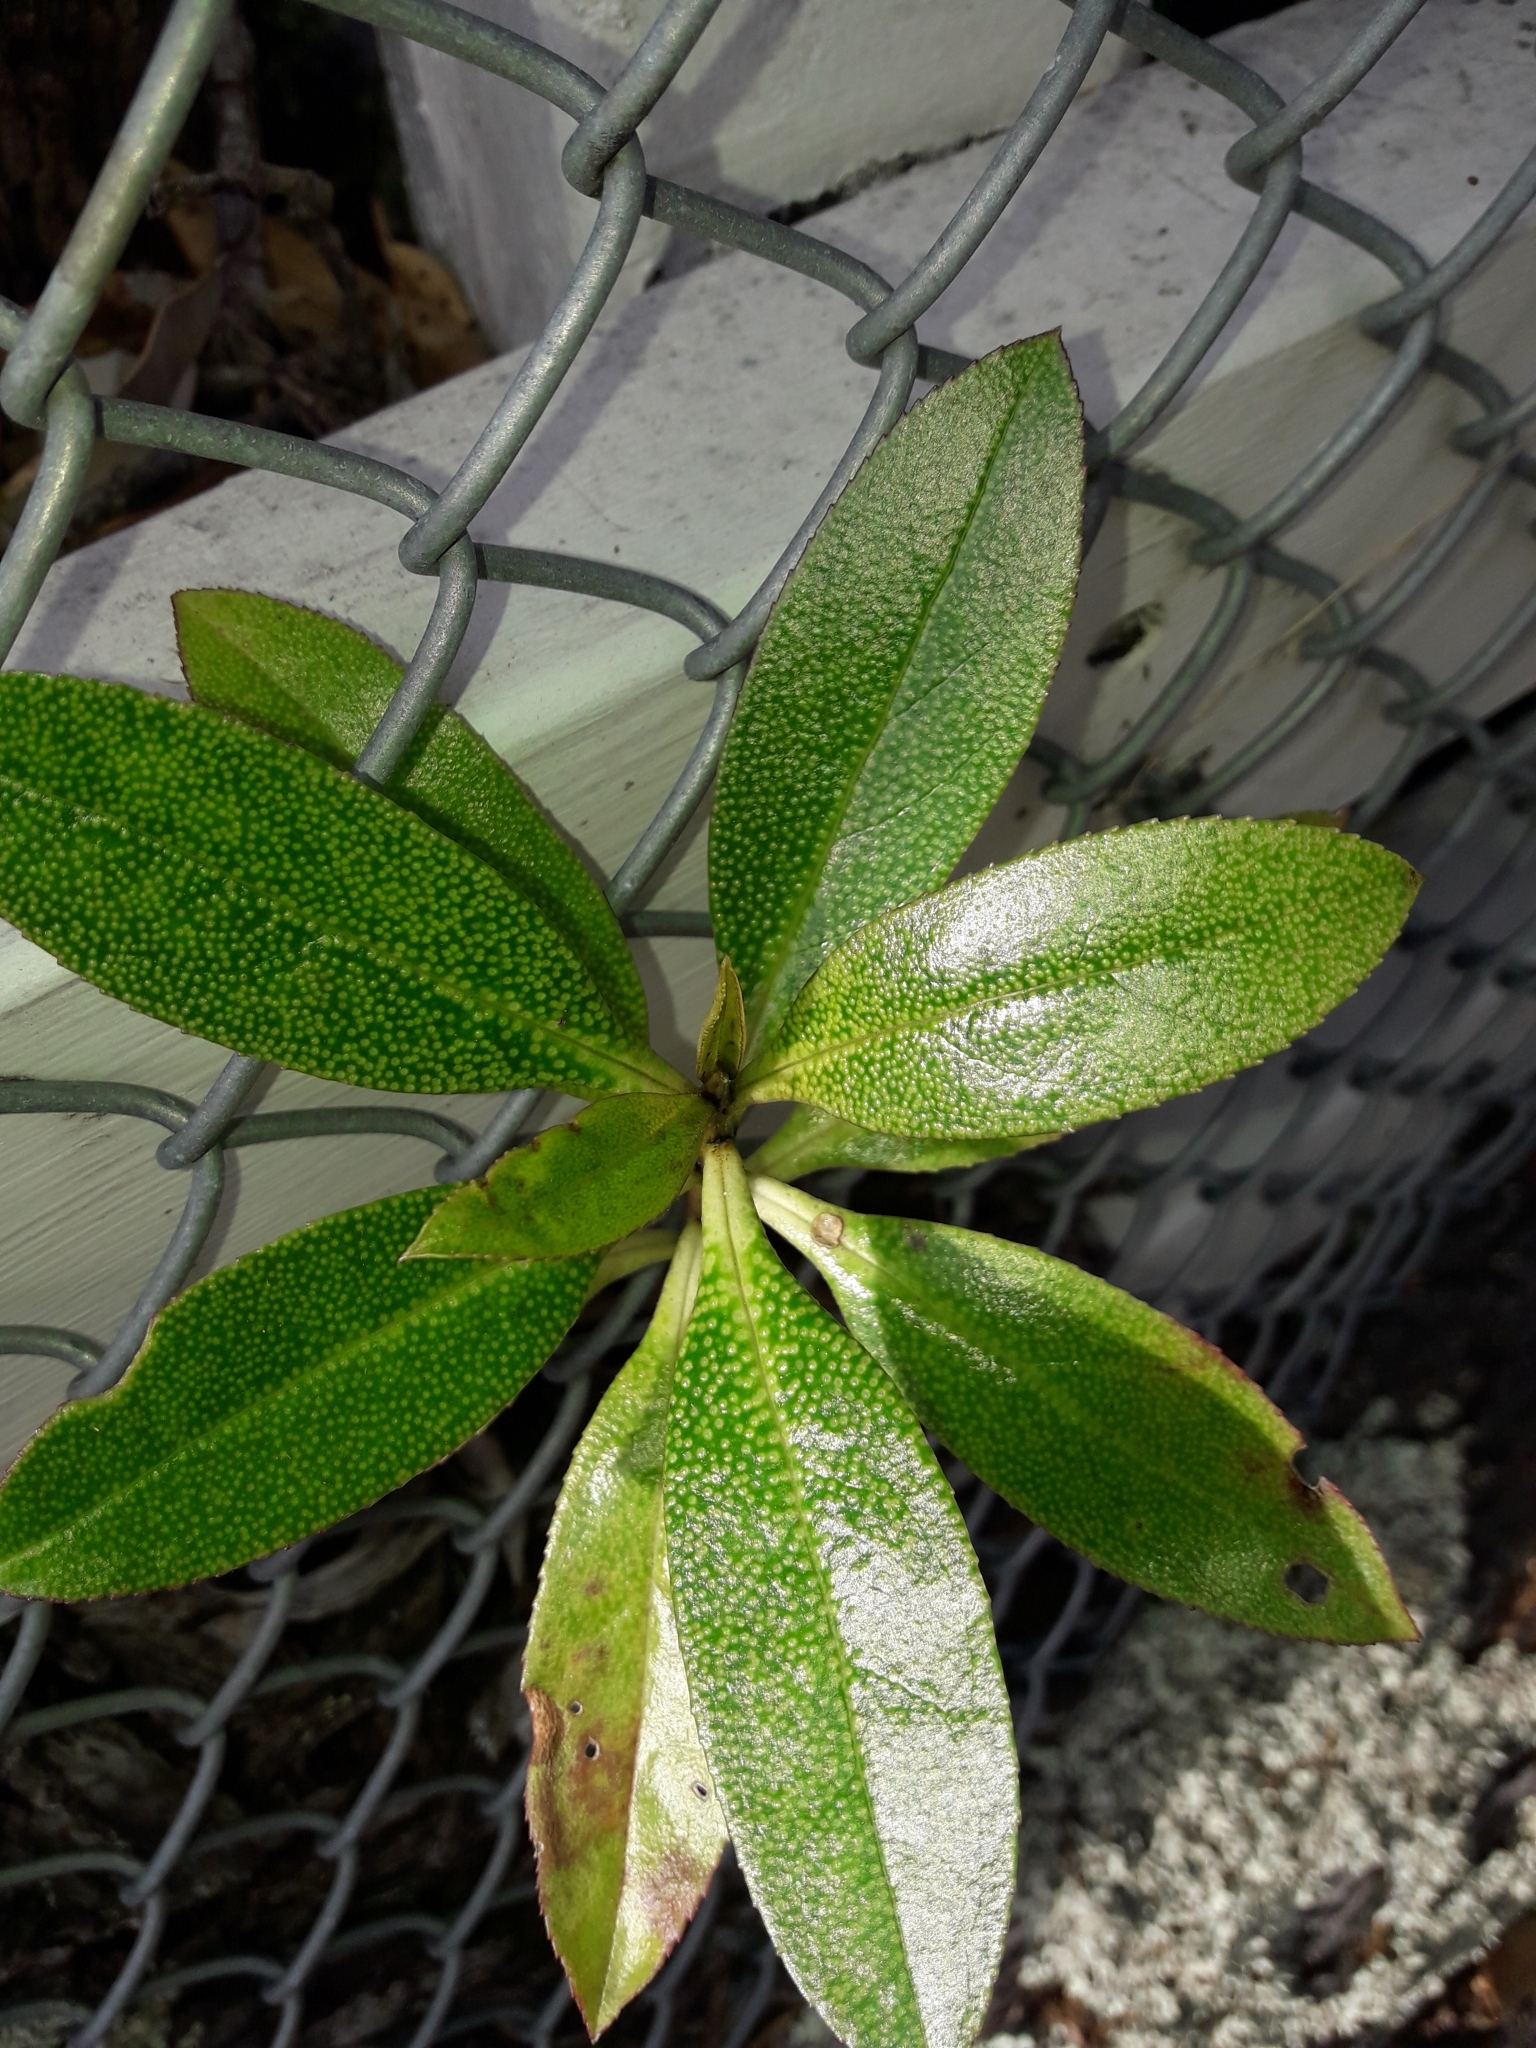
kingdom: Plantae
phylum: Tracheophyta
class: Magnoliopsida
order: Lamiales
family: Scrophulariaceae
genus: Myoporum
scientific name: Myoporum laetum
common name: Ngaio tree
